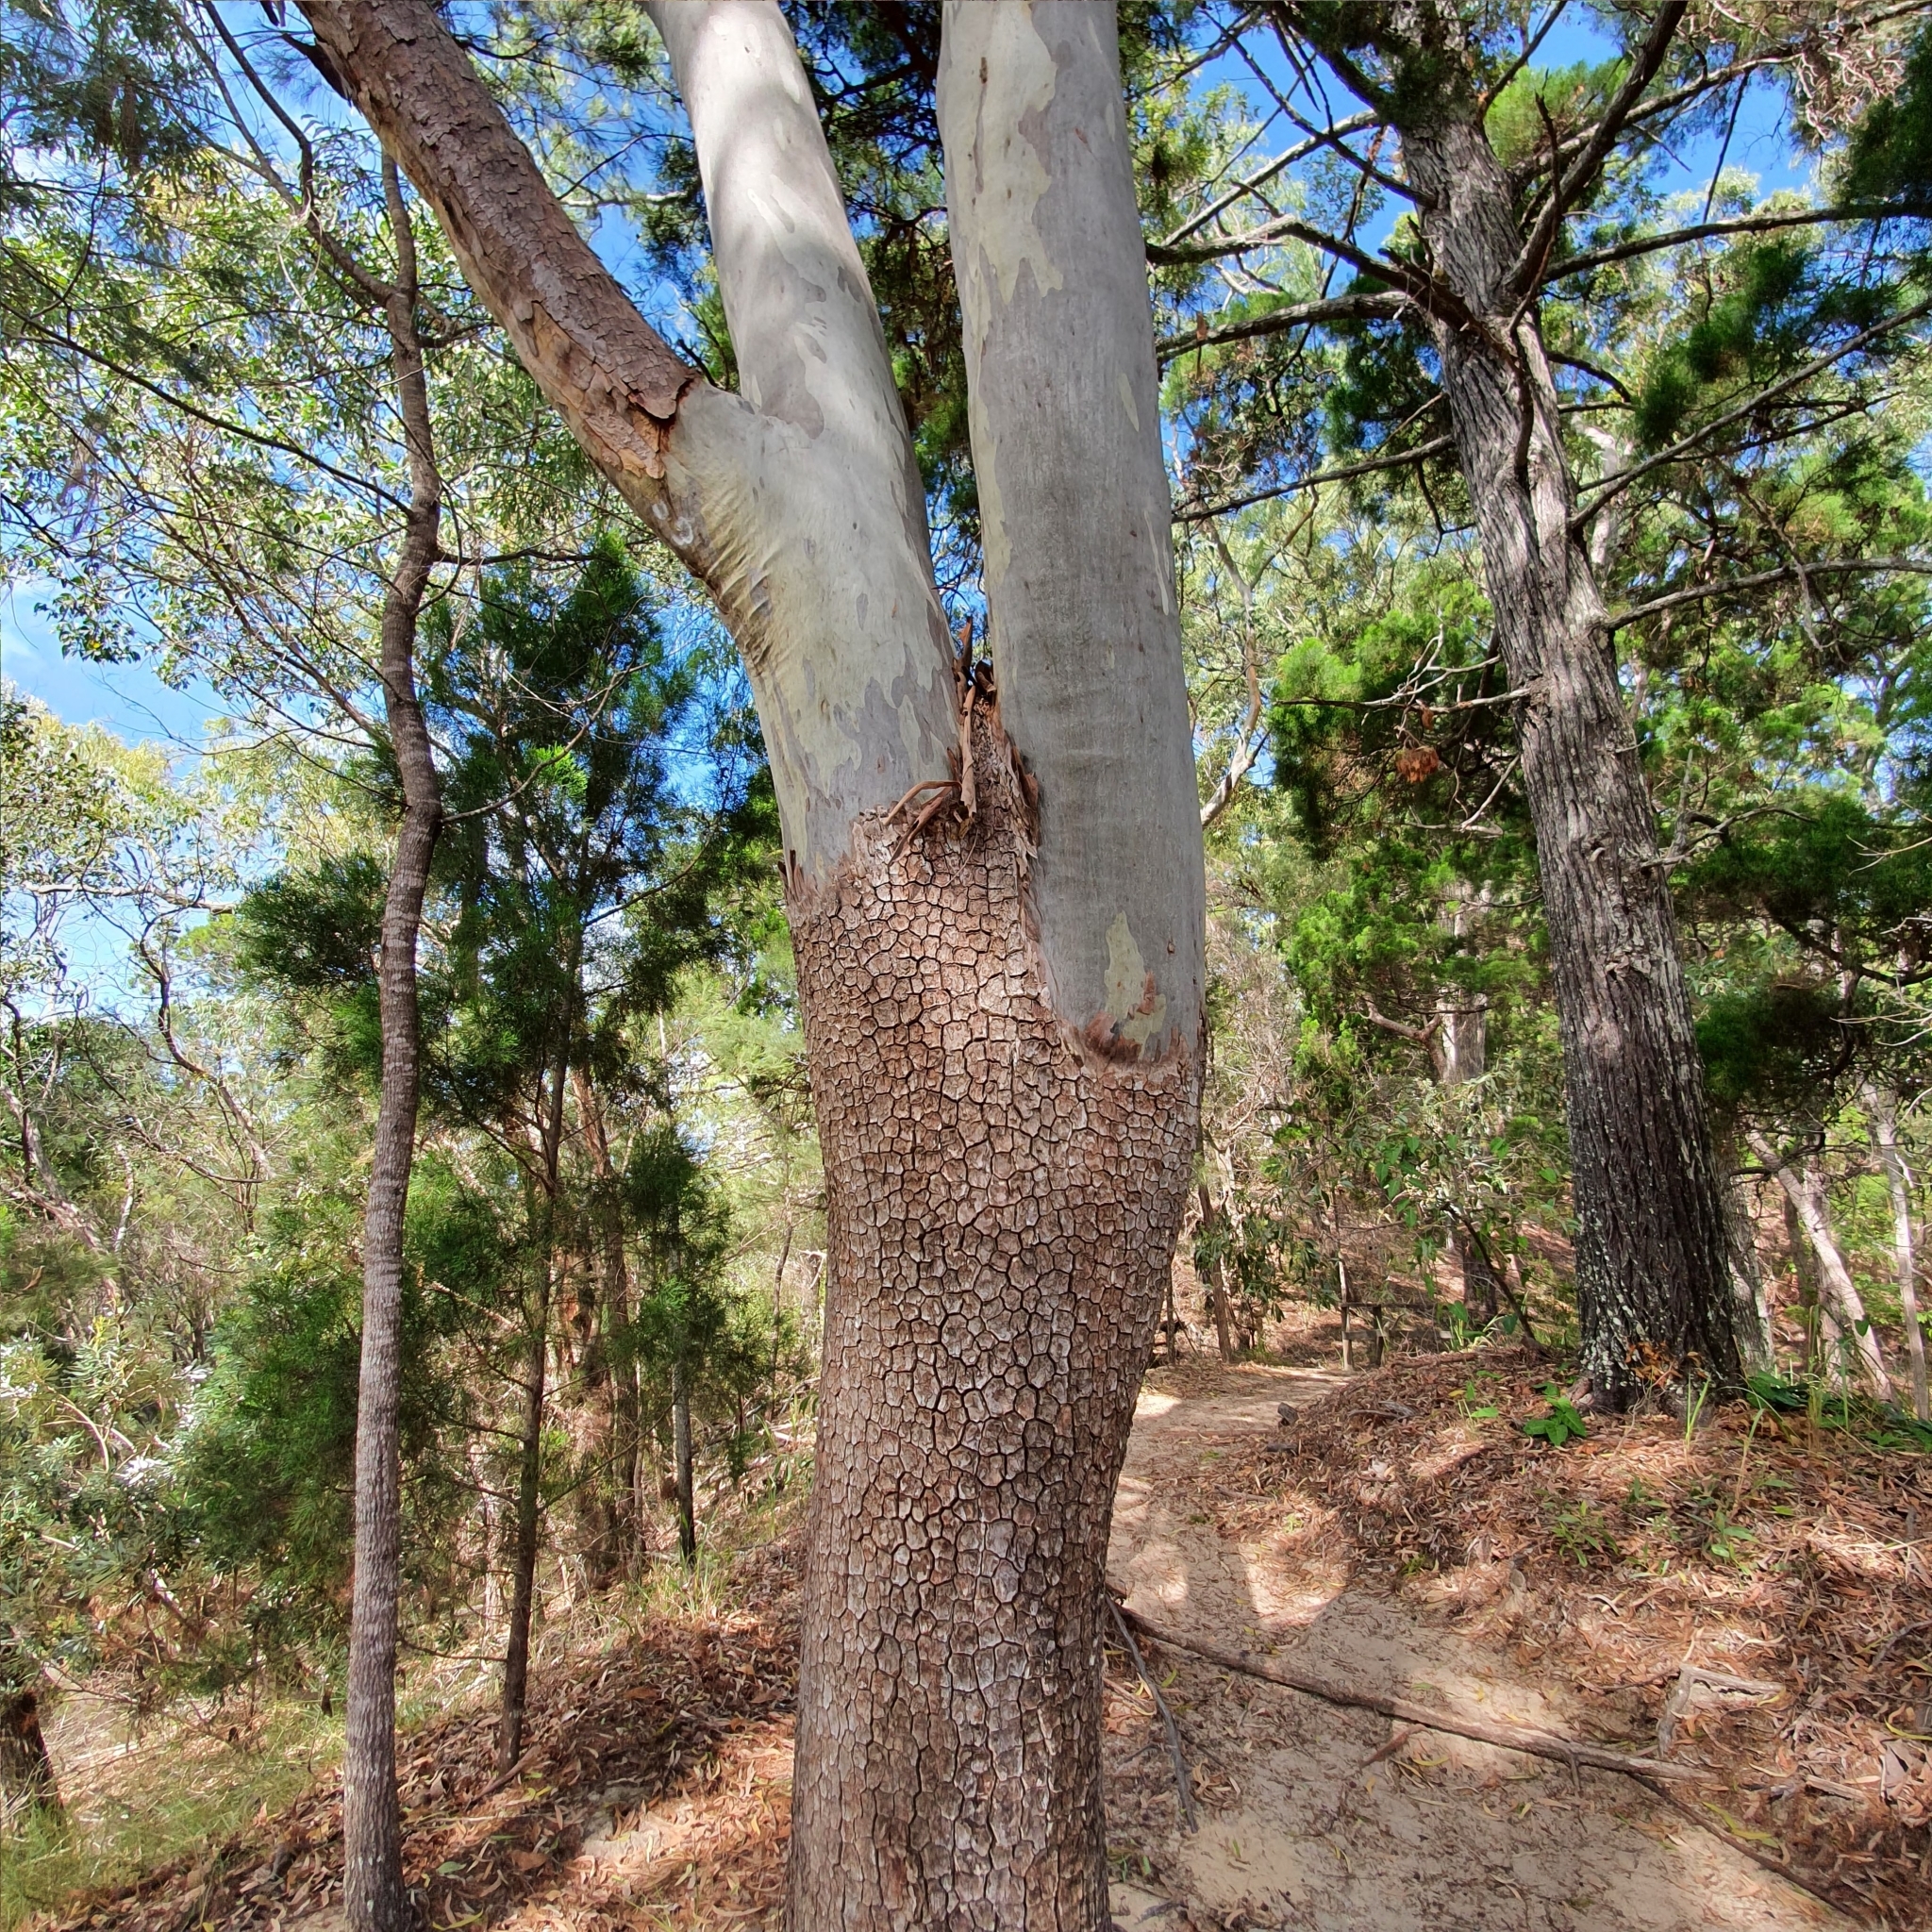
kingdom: Plantae
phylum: Tracheophyta
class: Magnoliopsida
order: Myrtales
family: Myrtaceae
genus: Corymbia
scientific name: Corymbia tessellaris
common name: Carbeen
